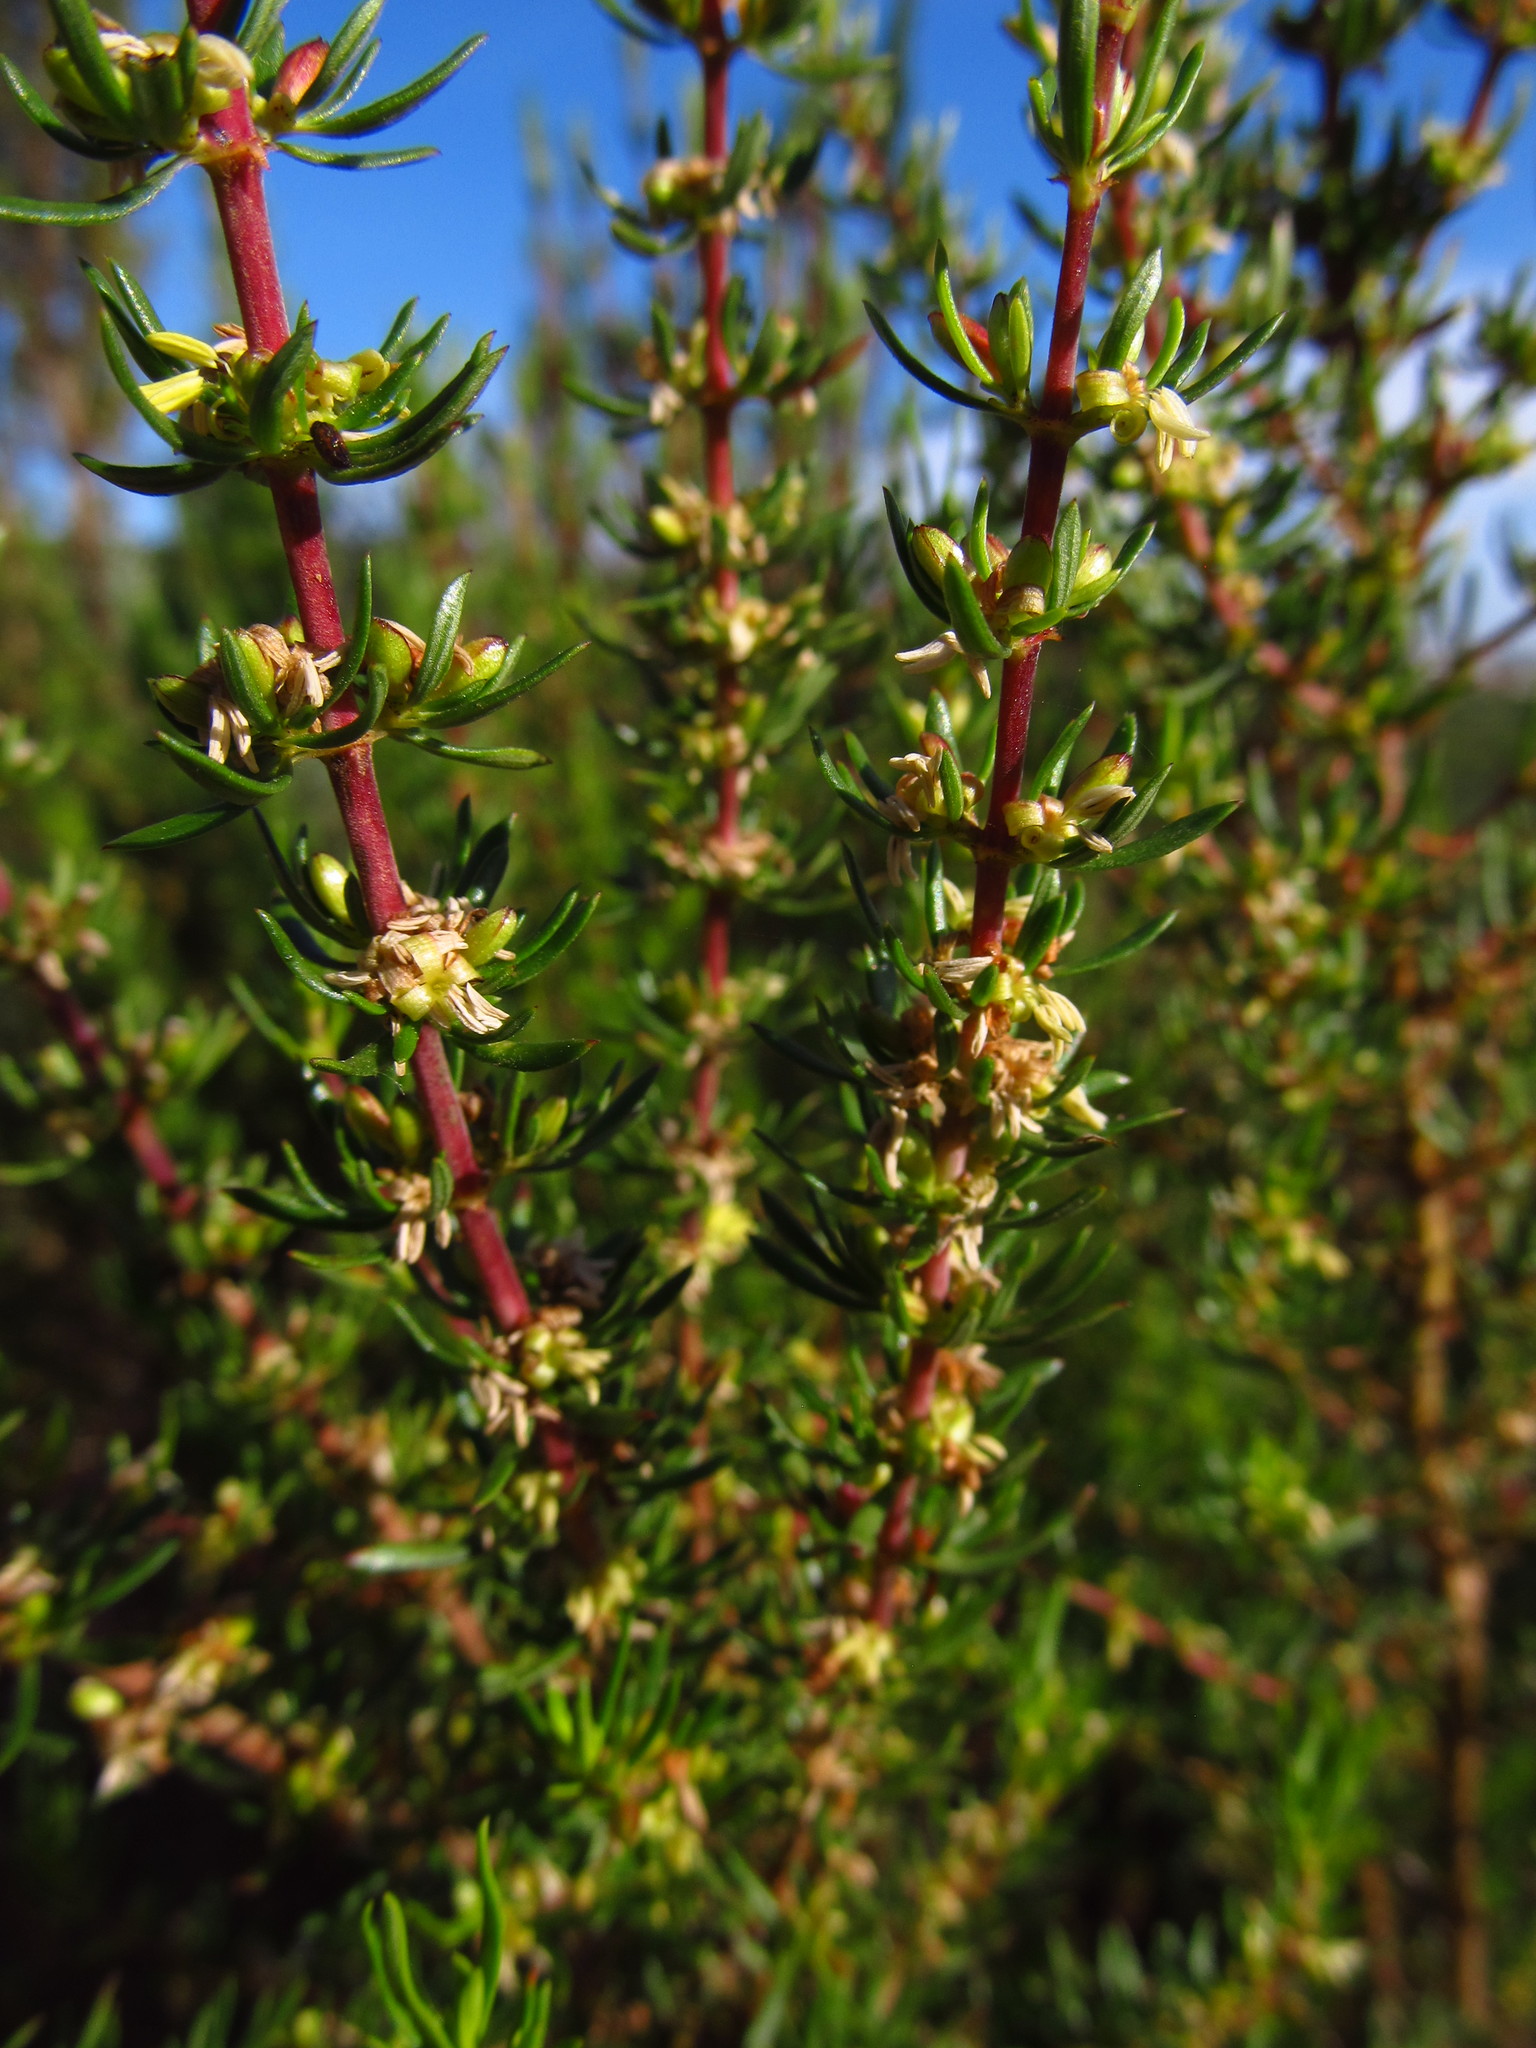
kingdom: Plantae
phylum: Tracheophyta
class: Magnoliopsida
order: Gentianales
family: Rubiaceae
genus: Anthospermum
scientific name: Anthospermum aethiopicum
